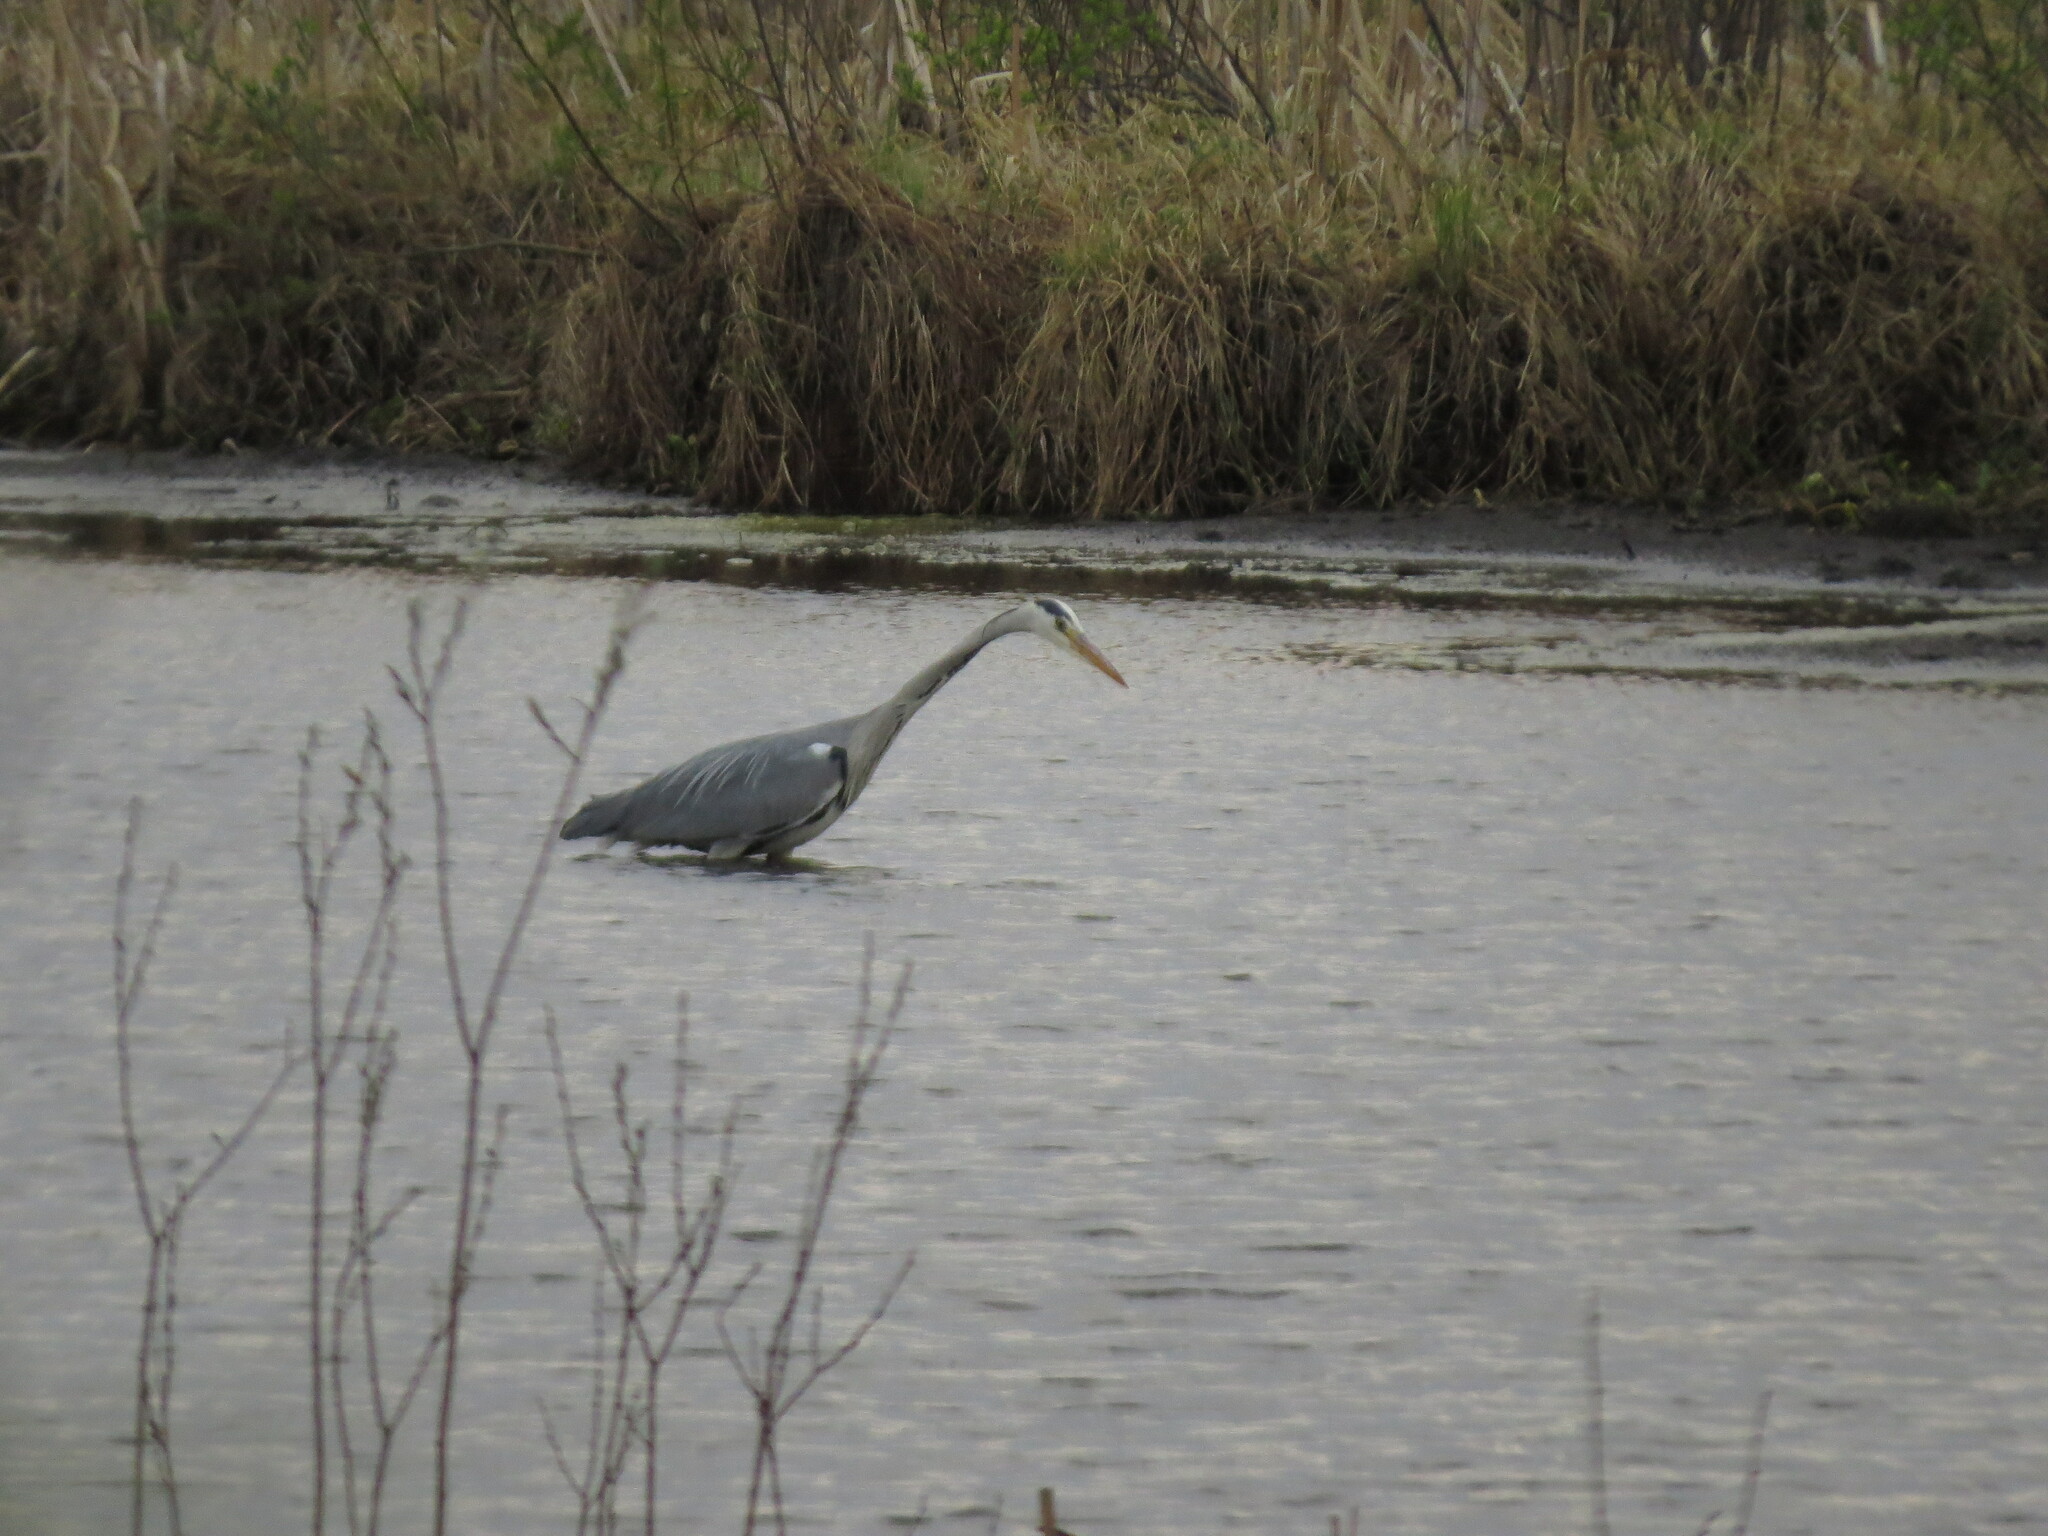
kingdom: Animalia
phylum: Chordata
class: Aves
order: Pelecaniformes
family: Ardeidae
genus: Ardea
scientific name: Ardea cinerea
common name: Grey heron
